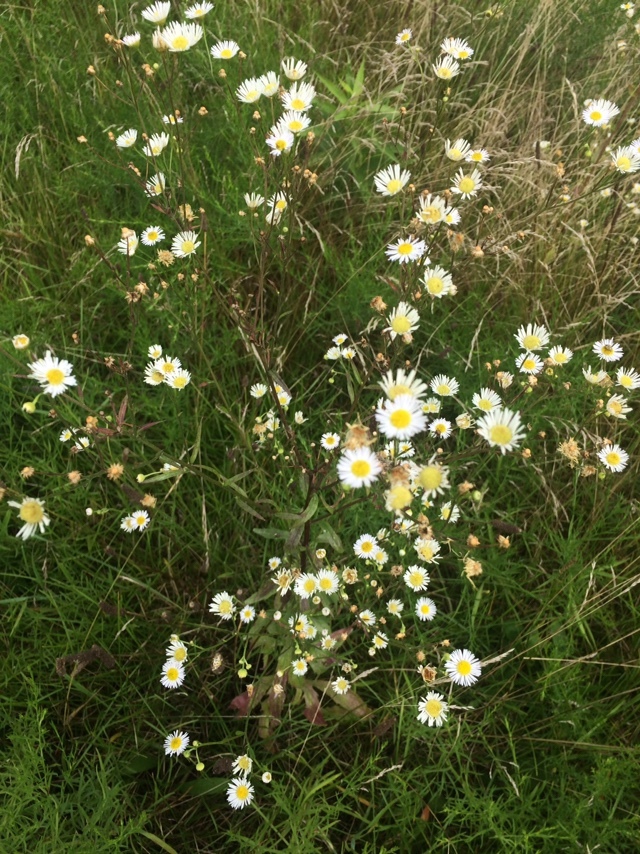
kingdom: Plantae
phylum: Tracheophyta
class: Magnoliopsida
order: Asterales
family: Asteraceae
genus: Symphyotrichum
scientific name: Symphyotrichum pilosum
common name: Awl aster
